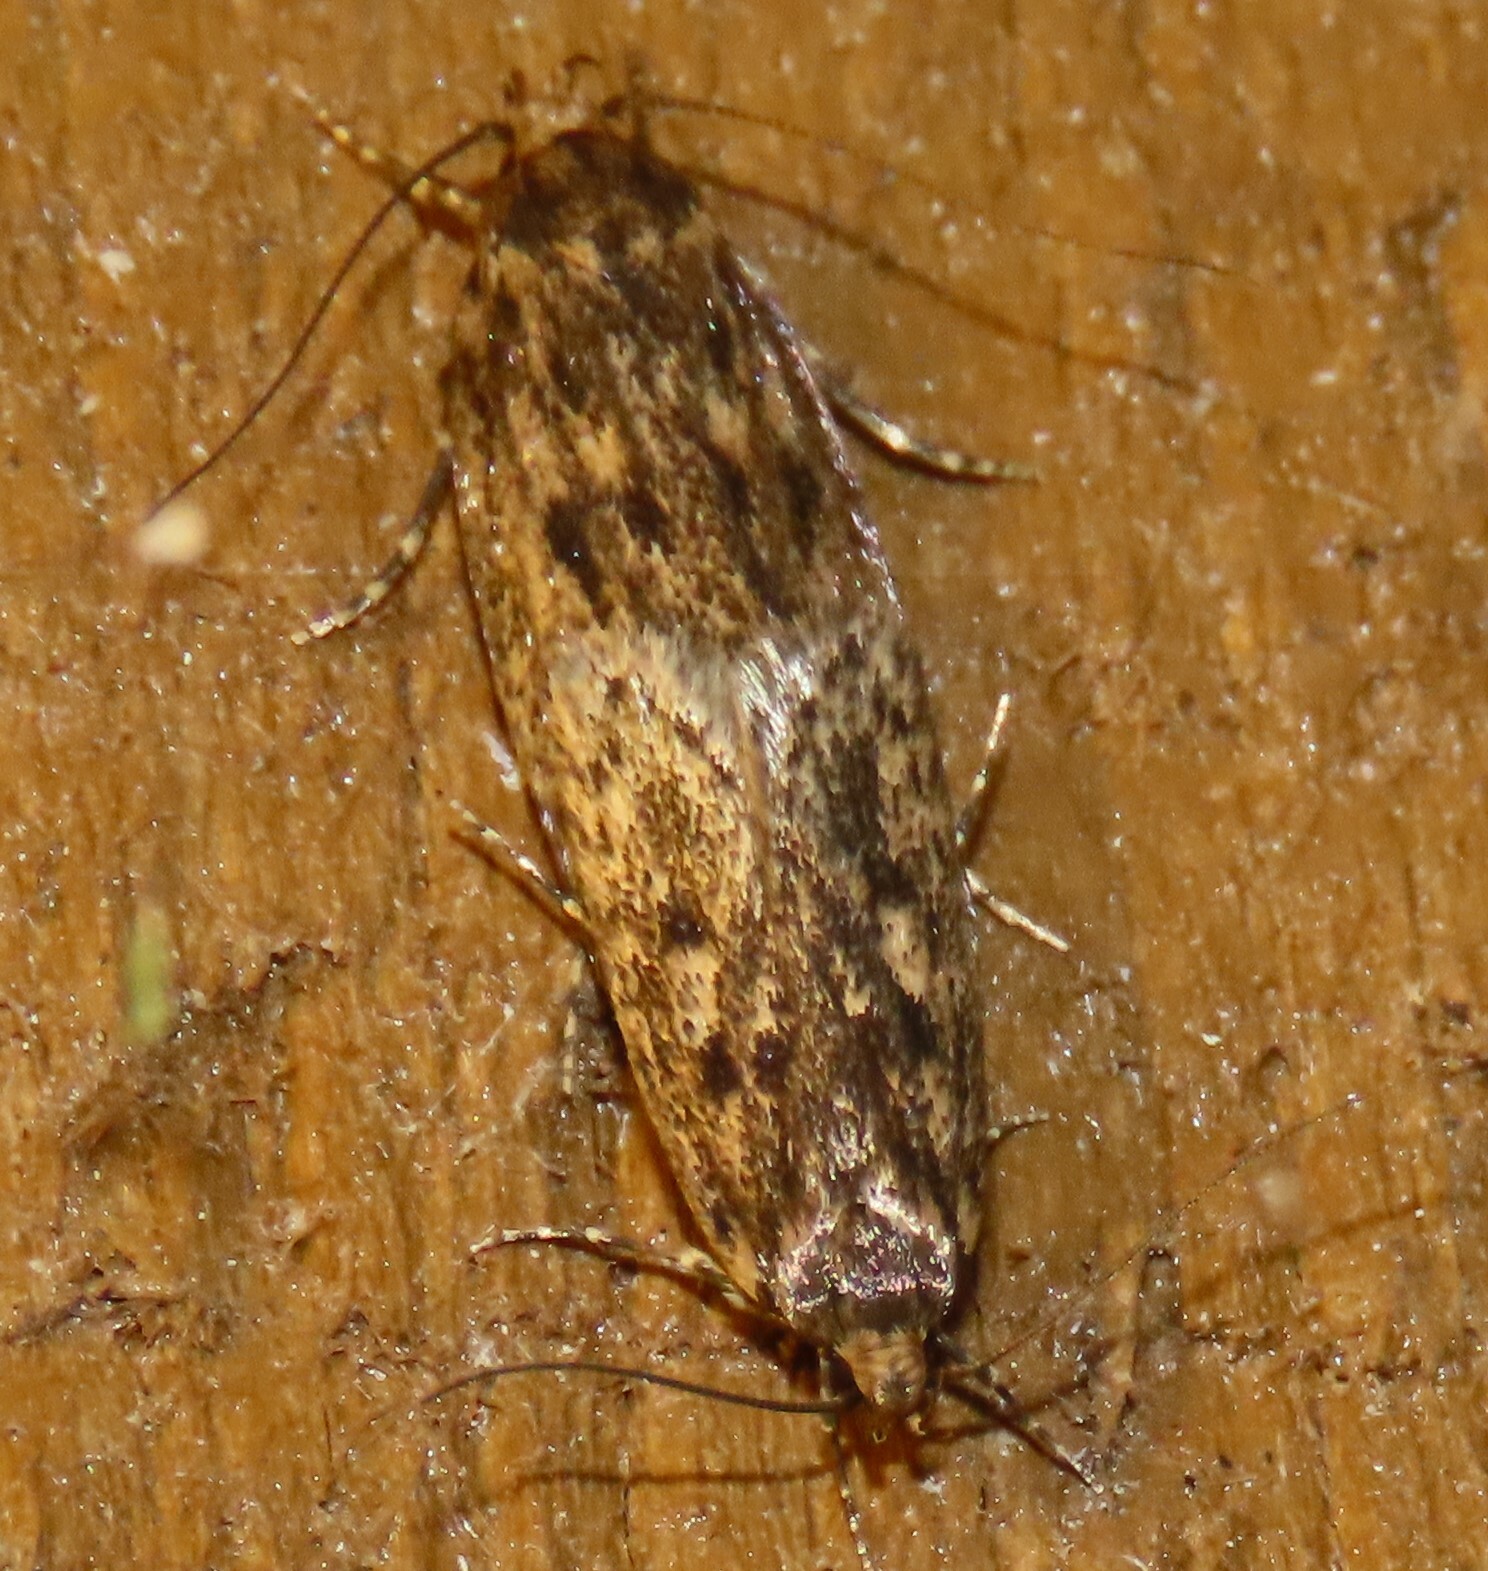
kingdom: Animalia
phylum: Arthropoda
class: Insecta
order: Lepidoptera
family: Oecophoridae
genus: Hofmannophila
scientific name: Hofmannophila pseudospretella
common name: Brown house moth
